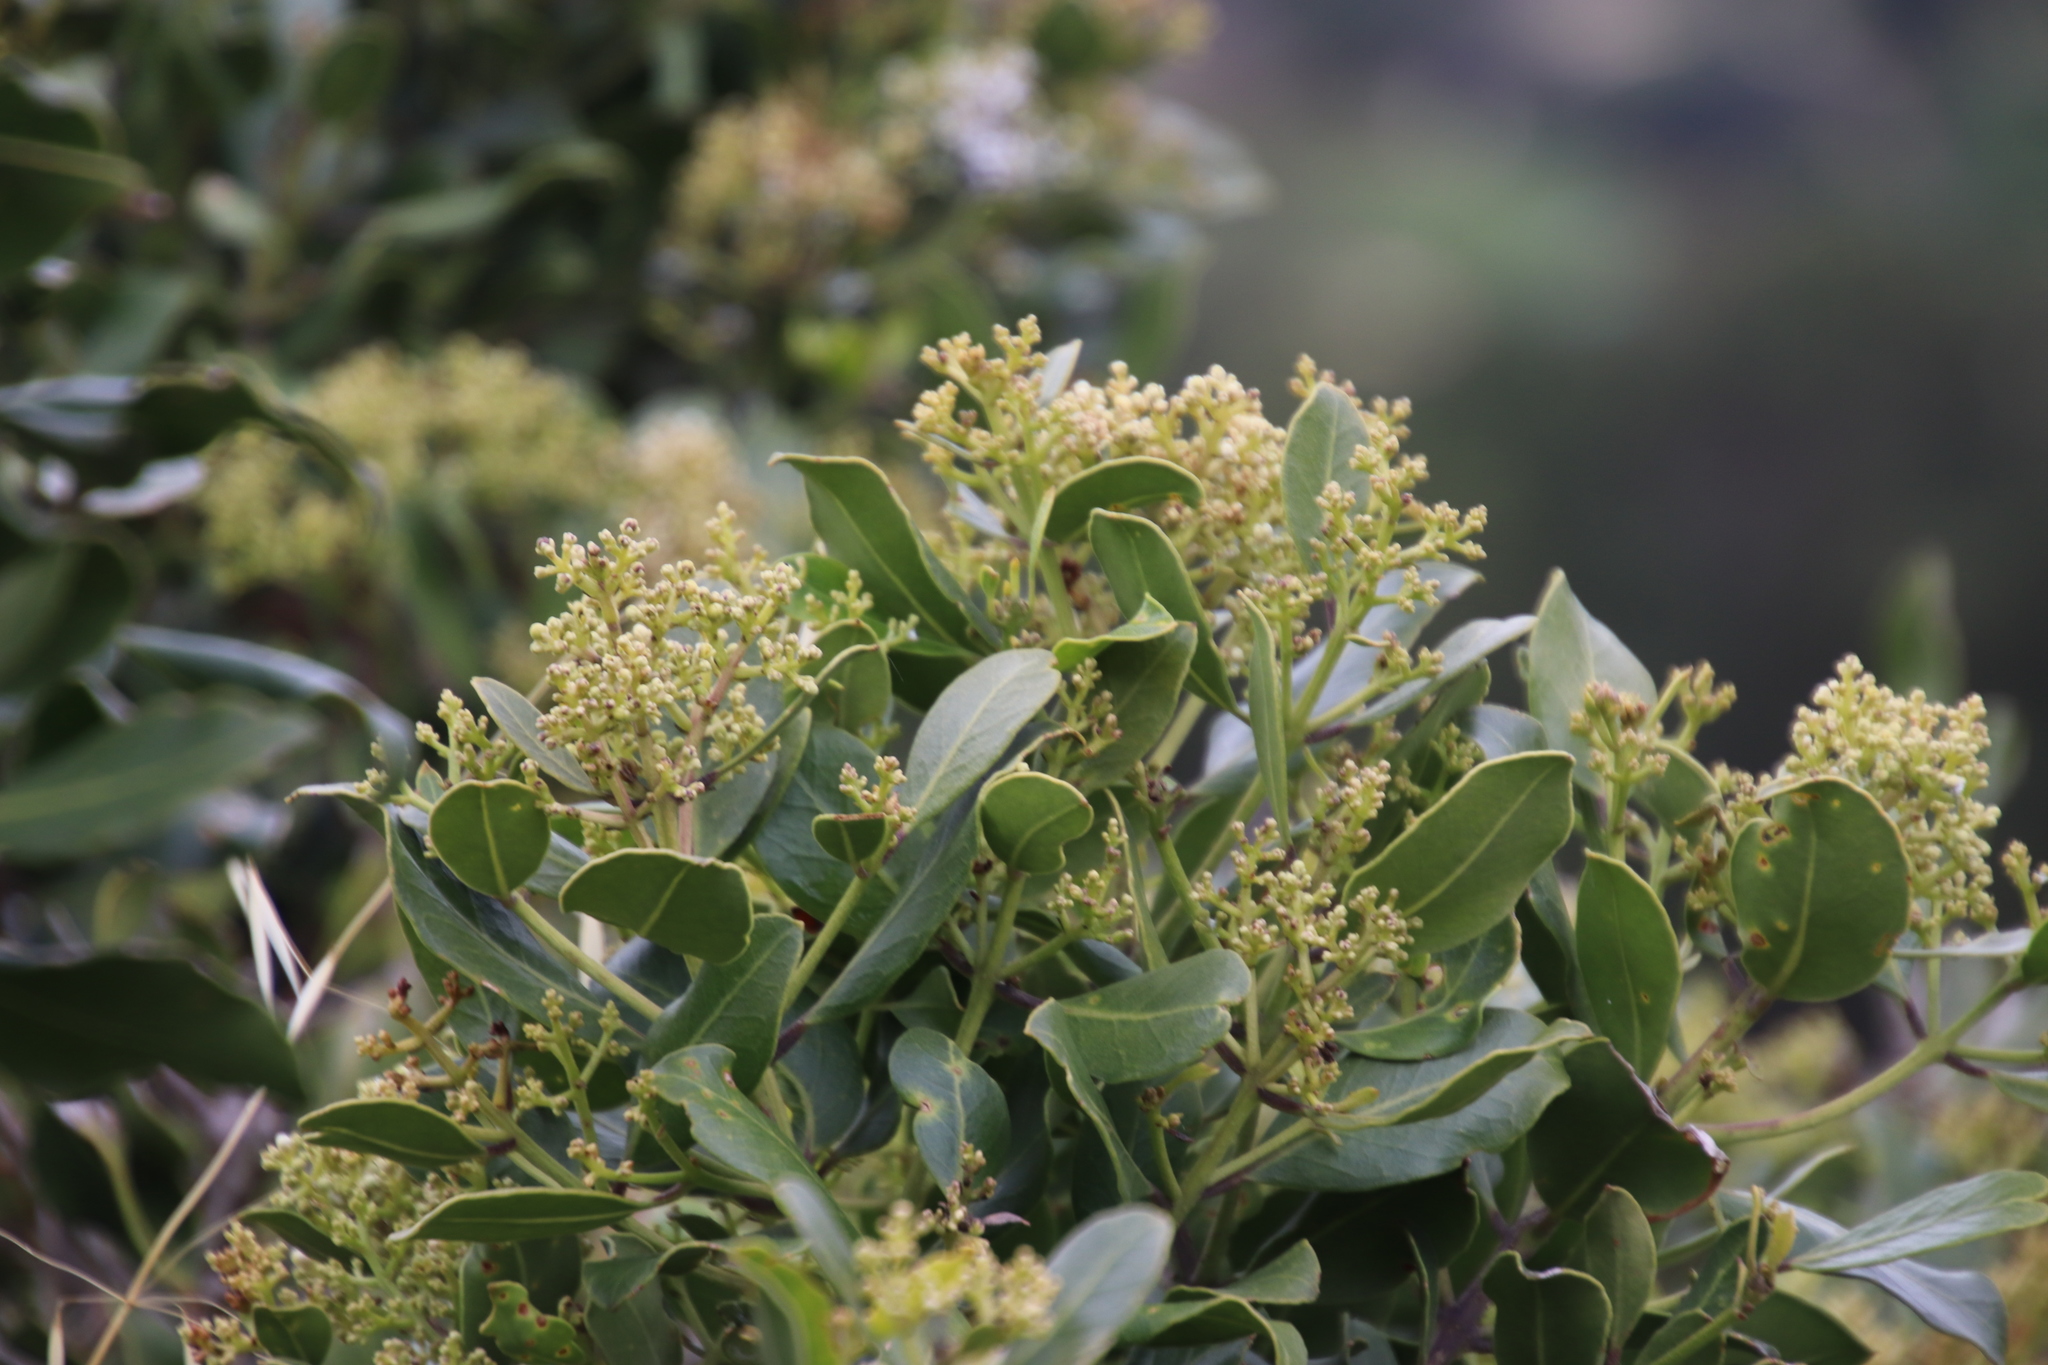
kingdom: Plantae
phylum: Tracheophyta
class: Magnoliopsida
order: Lamiales
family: Oleaceae
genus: Olea
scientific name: Olea capensis
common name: Black ironwood
